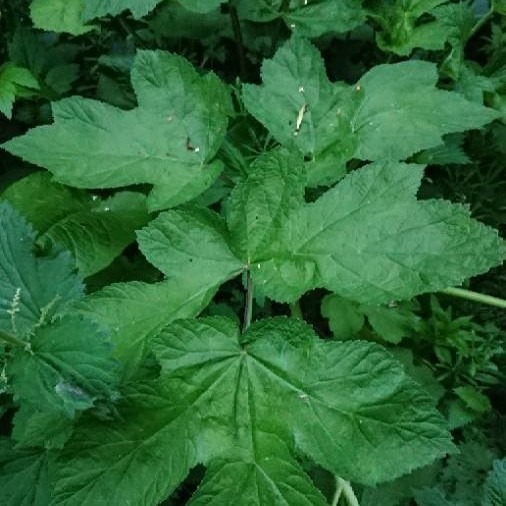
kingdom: Plantae
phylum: Tracheophyta
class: Magnoliopsida
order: Apiales
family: Apiaceae
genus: Heracleum
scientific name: Heracleum sphondylium
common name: Hogweed
